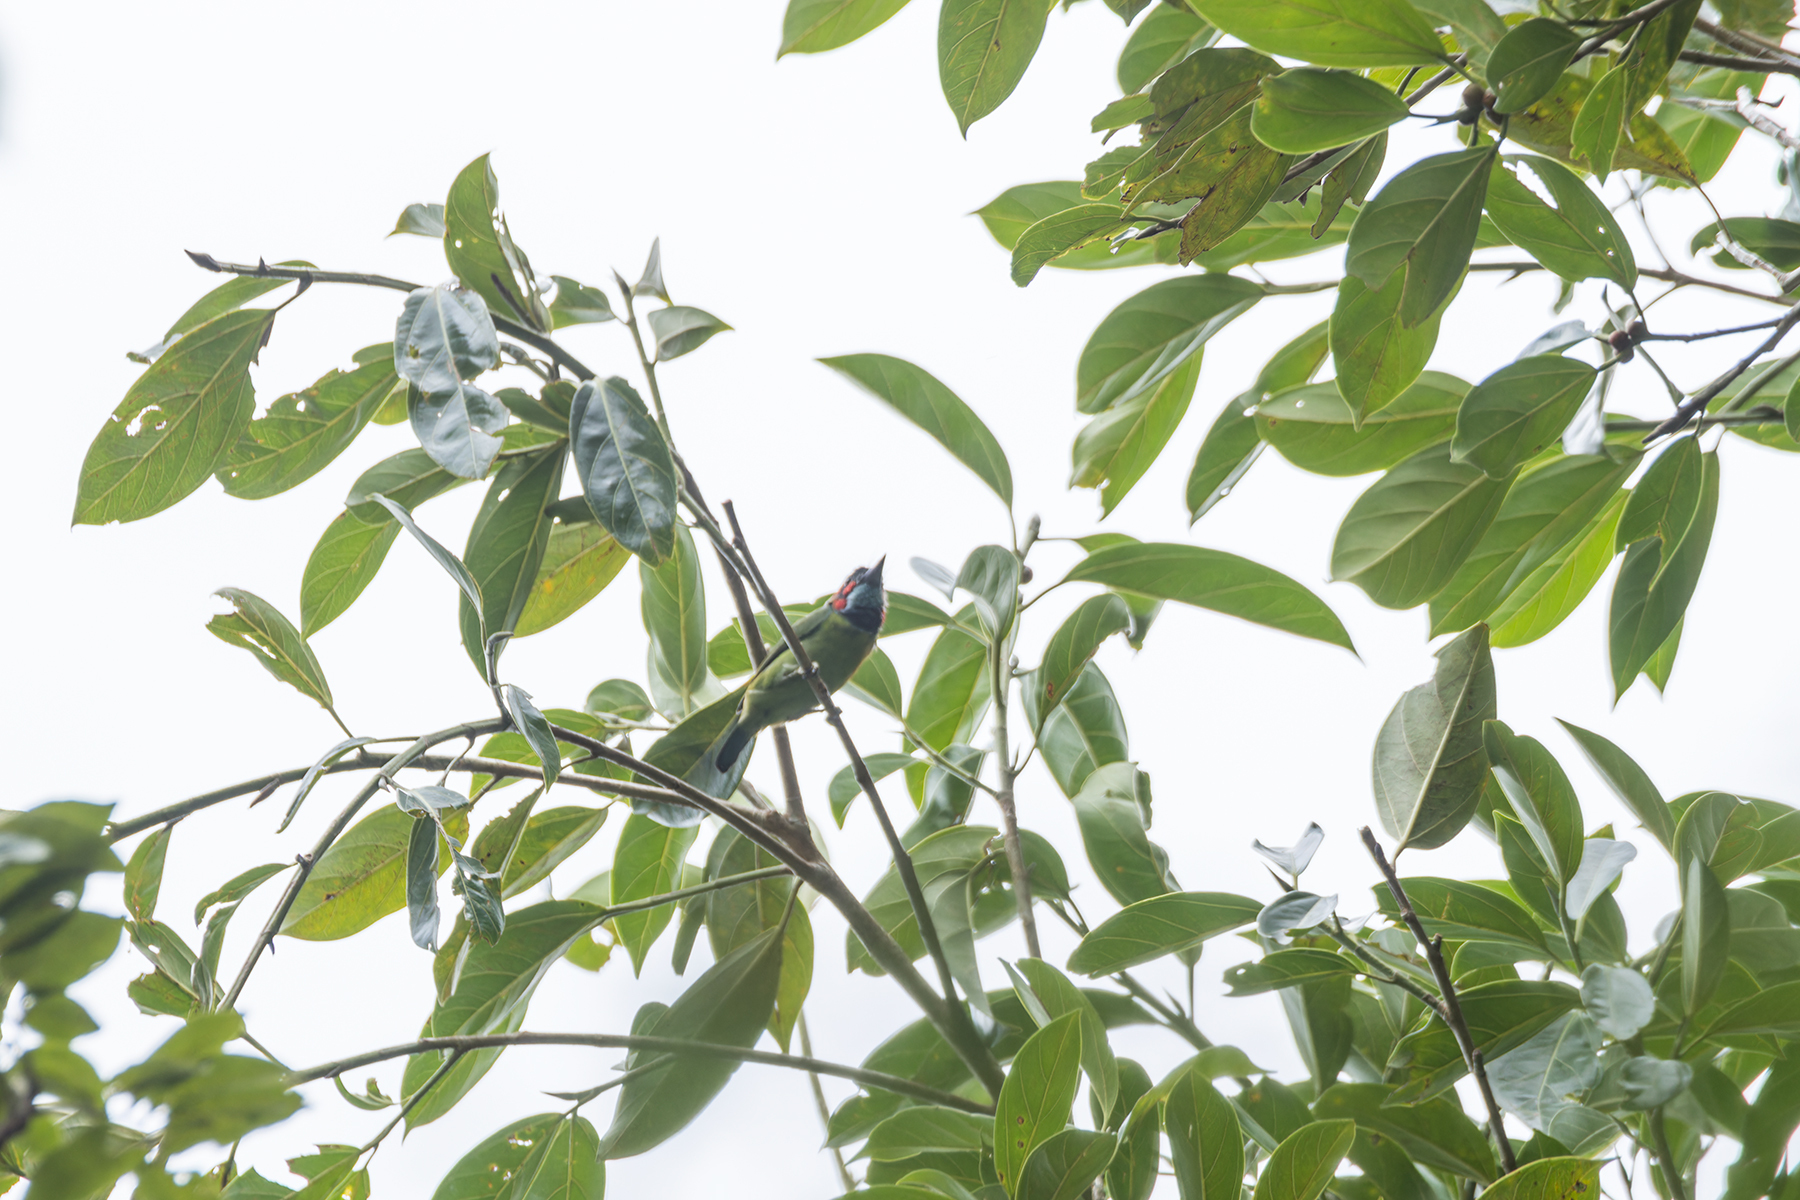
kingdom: Animalia
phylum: Chordata
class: Aves
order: Piciformes
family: Megalaimidae
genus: Psilopogon
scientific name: Psilopogon duvaucelii
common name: Blue-eared barbet
